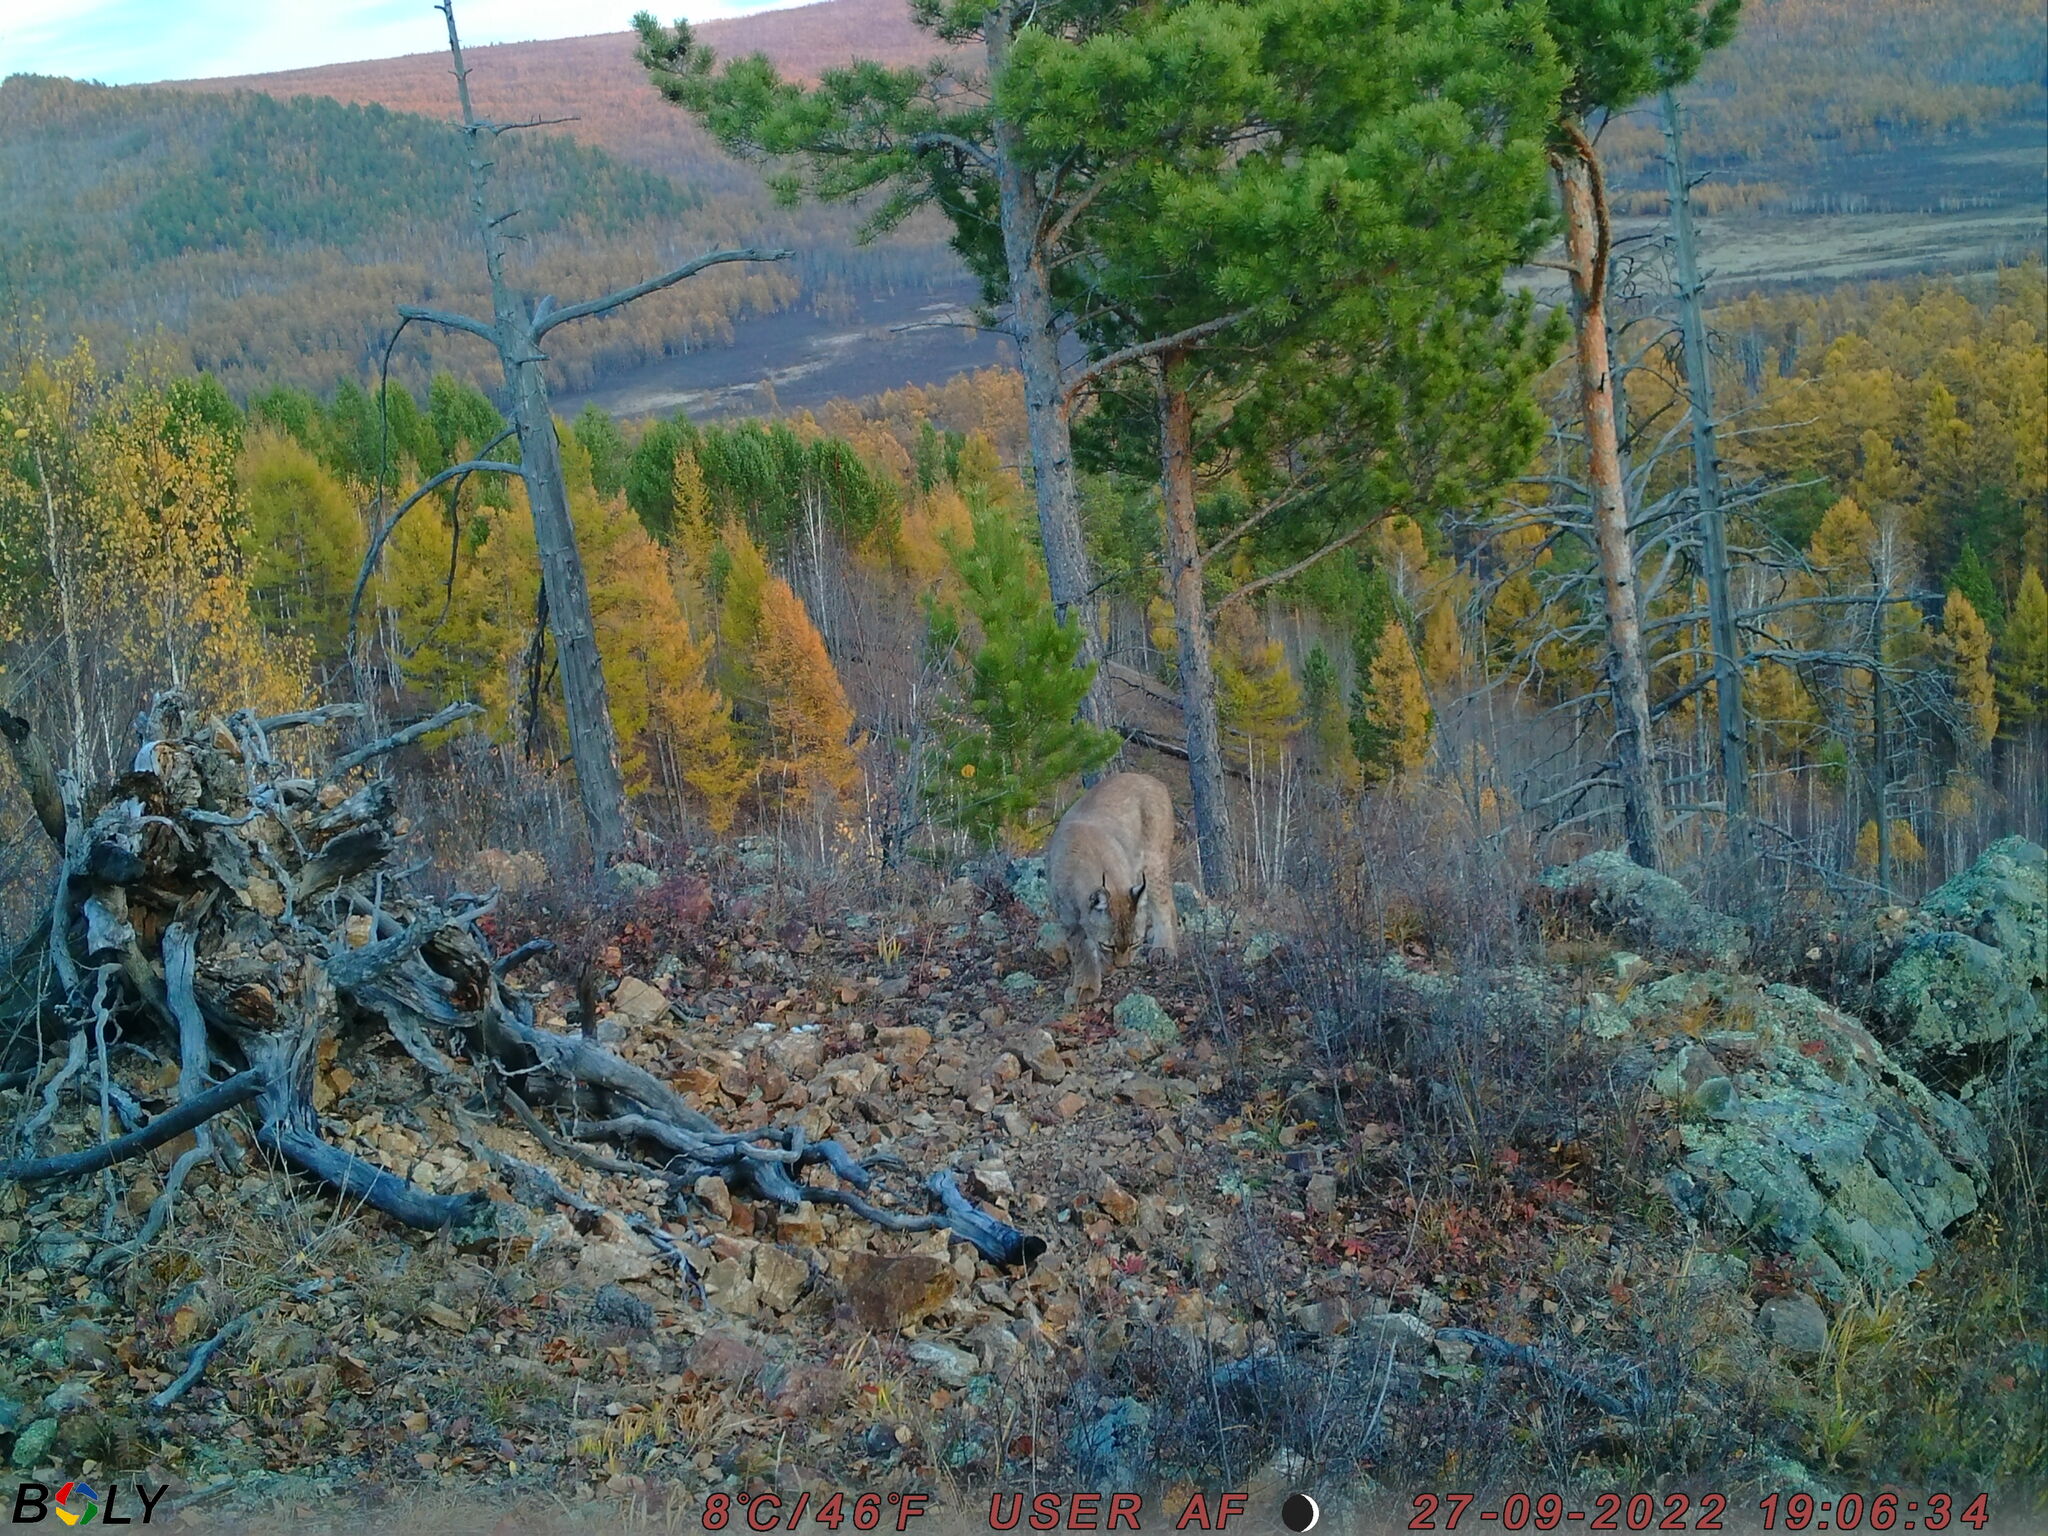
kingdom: Animalia
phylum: Chordata
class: Mammalia
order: Carnivora
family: Felidae
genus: Lynx
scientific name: Lynx lynx
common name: Eurasian lynx
